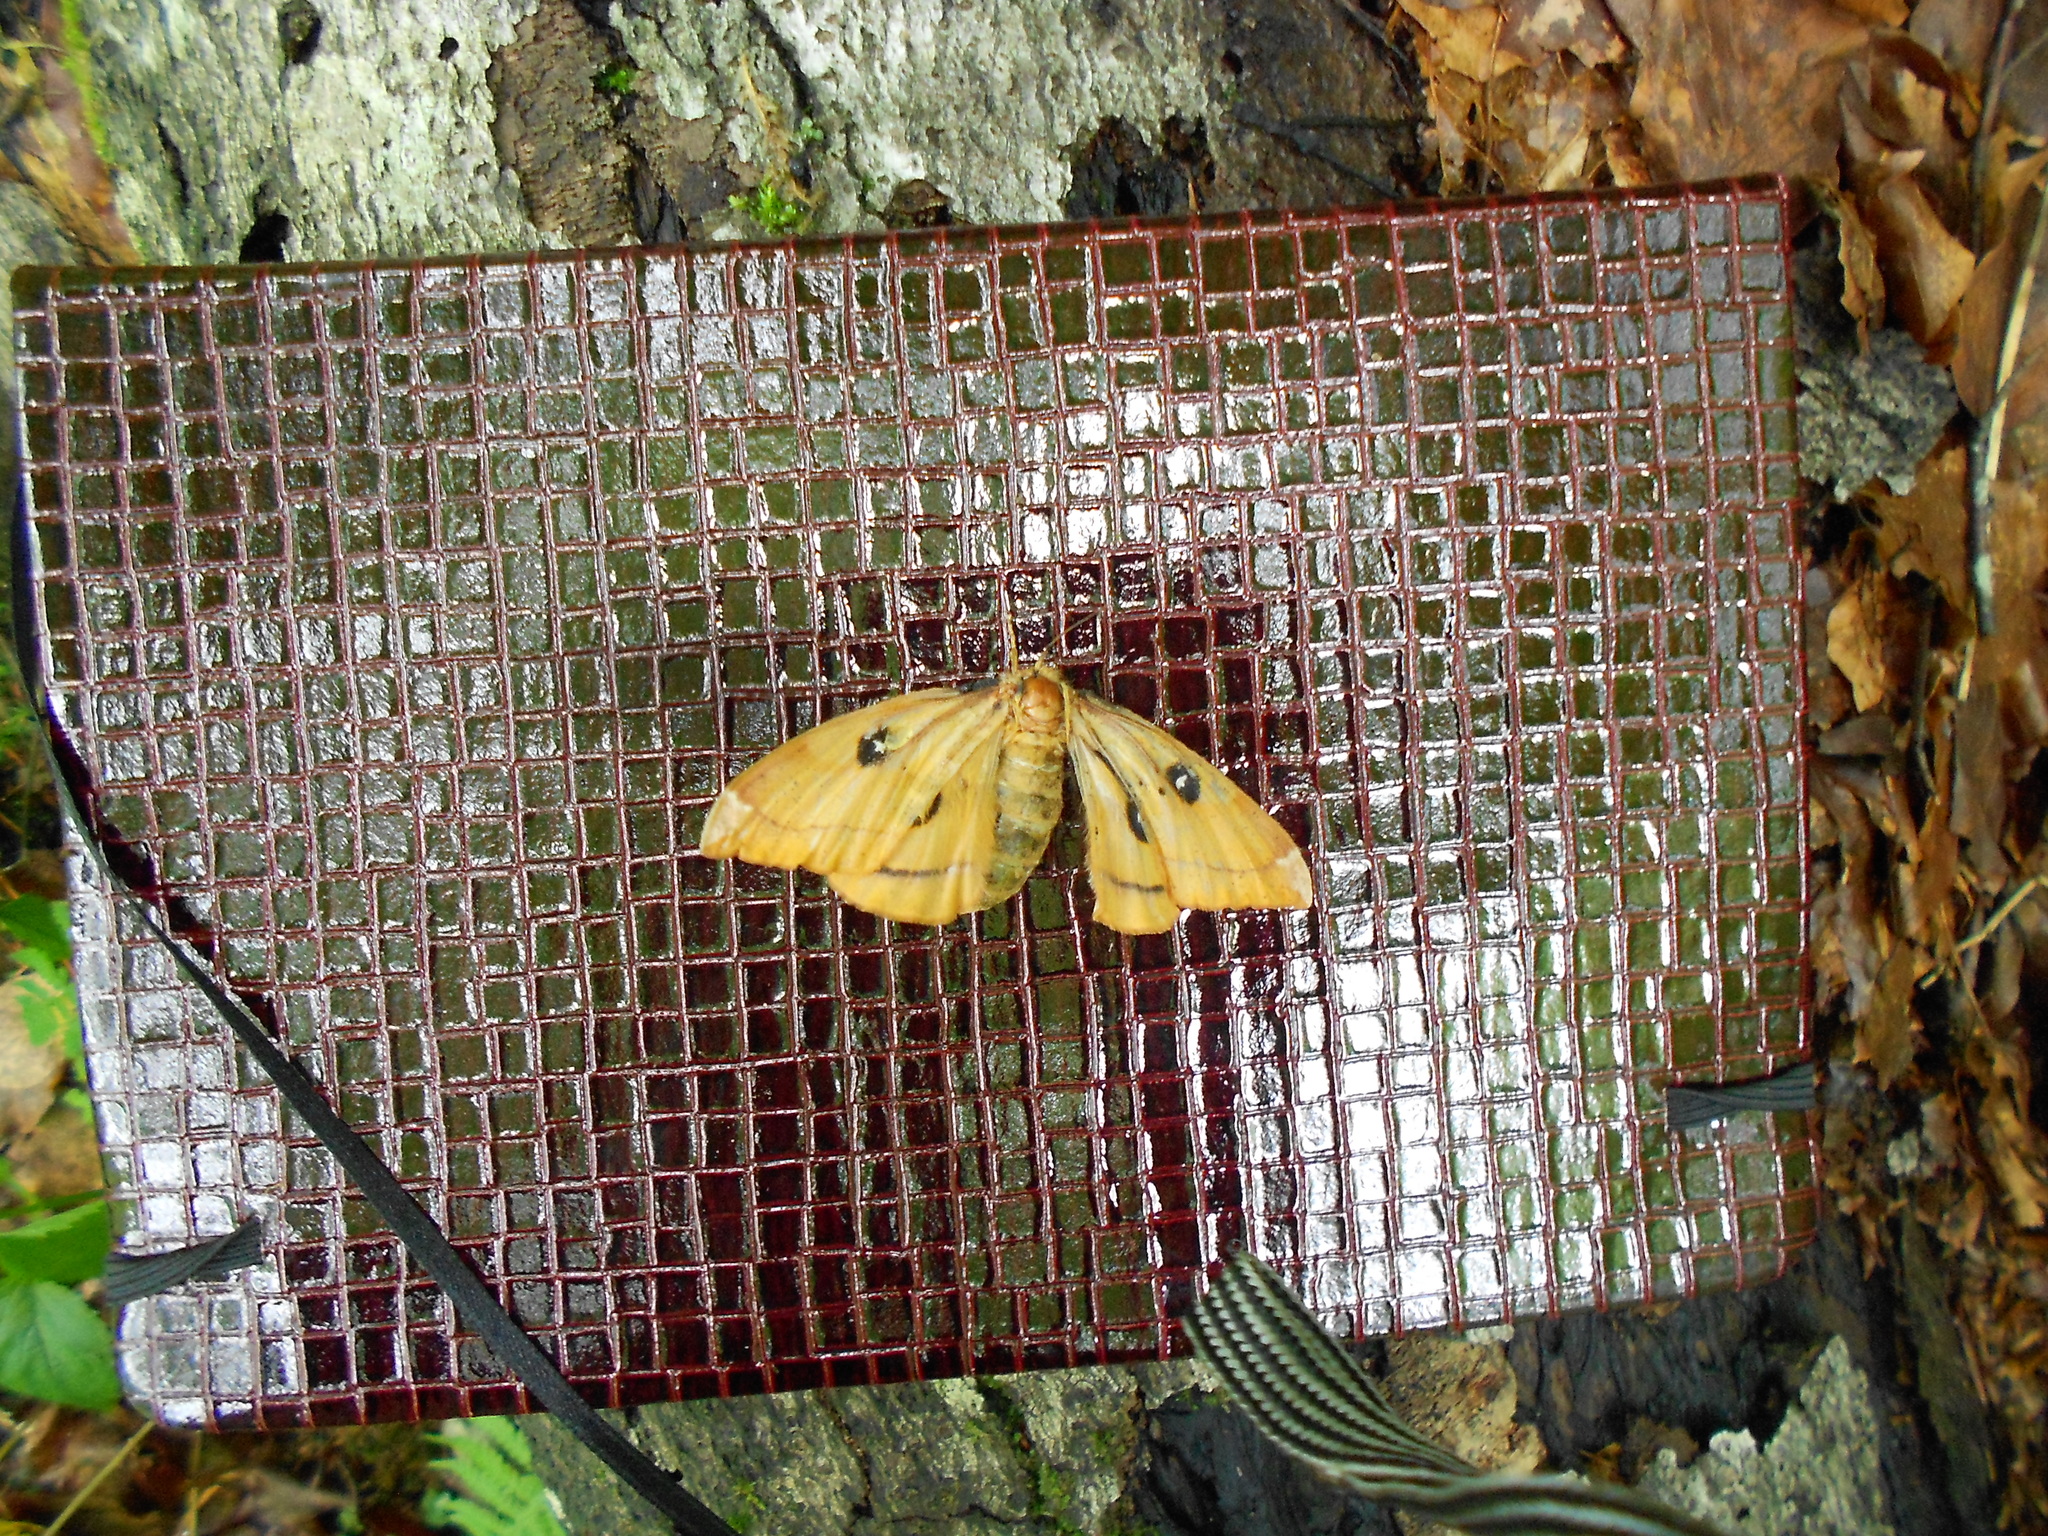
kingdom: Animalia
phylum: Arthropoda
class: Insecta
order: Lepidoptera
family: Saturniidae
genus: Aglia
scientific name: Aglia tau
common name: Tau emperor
